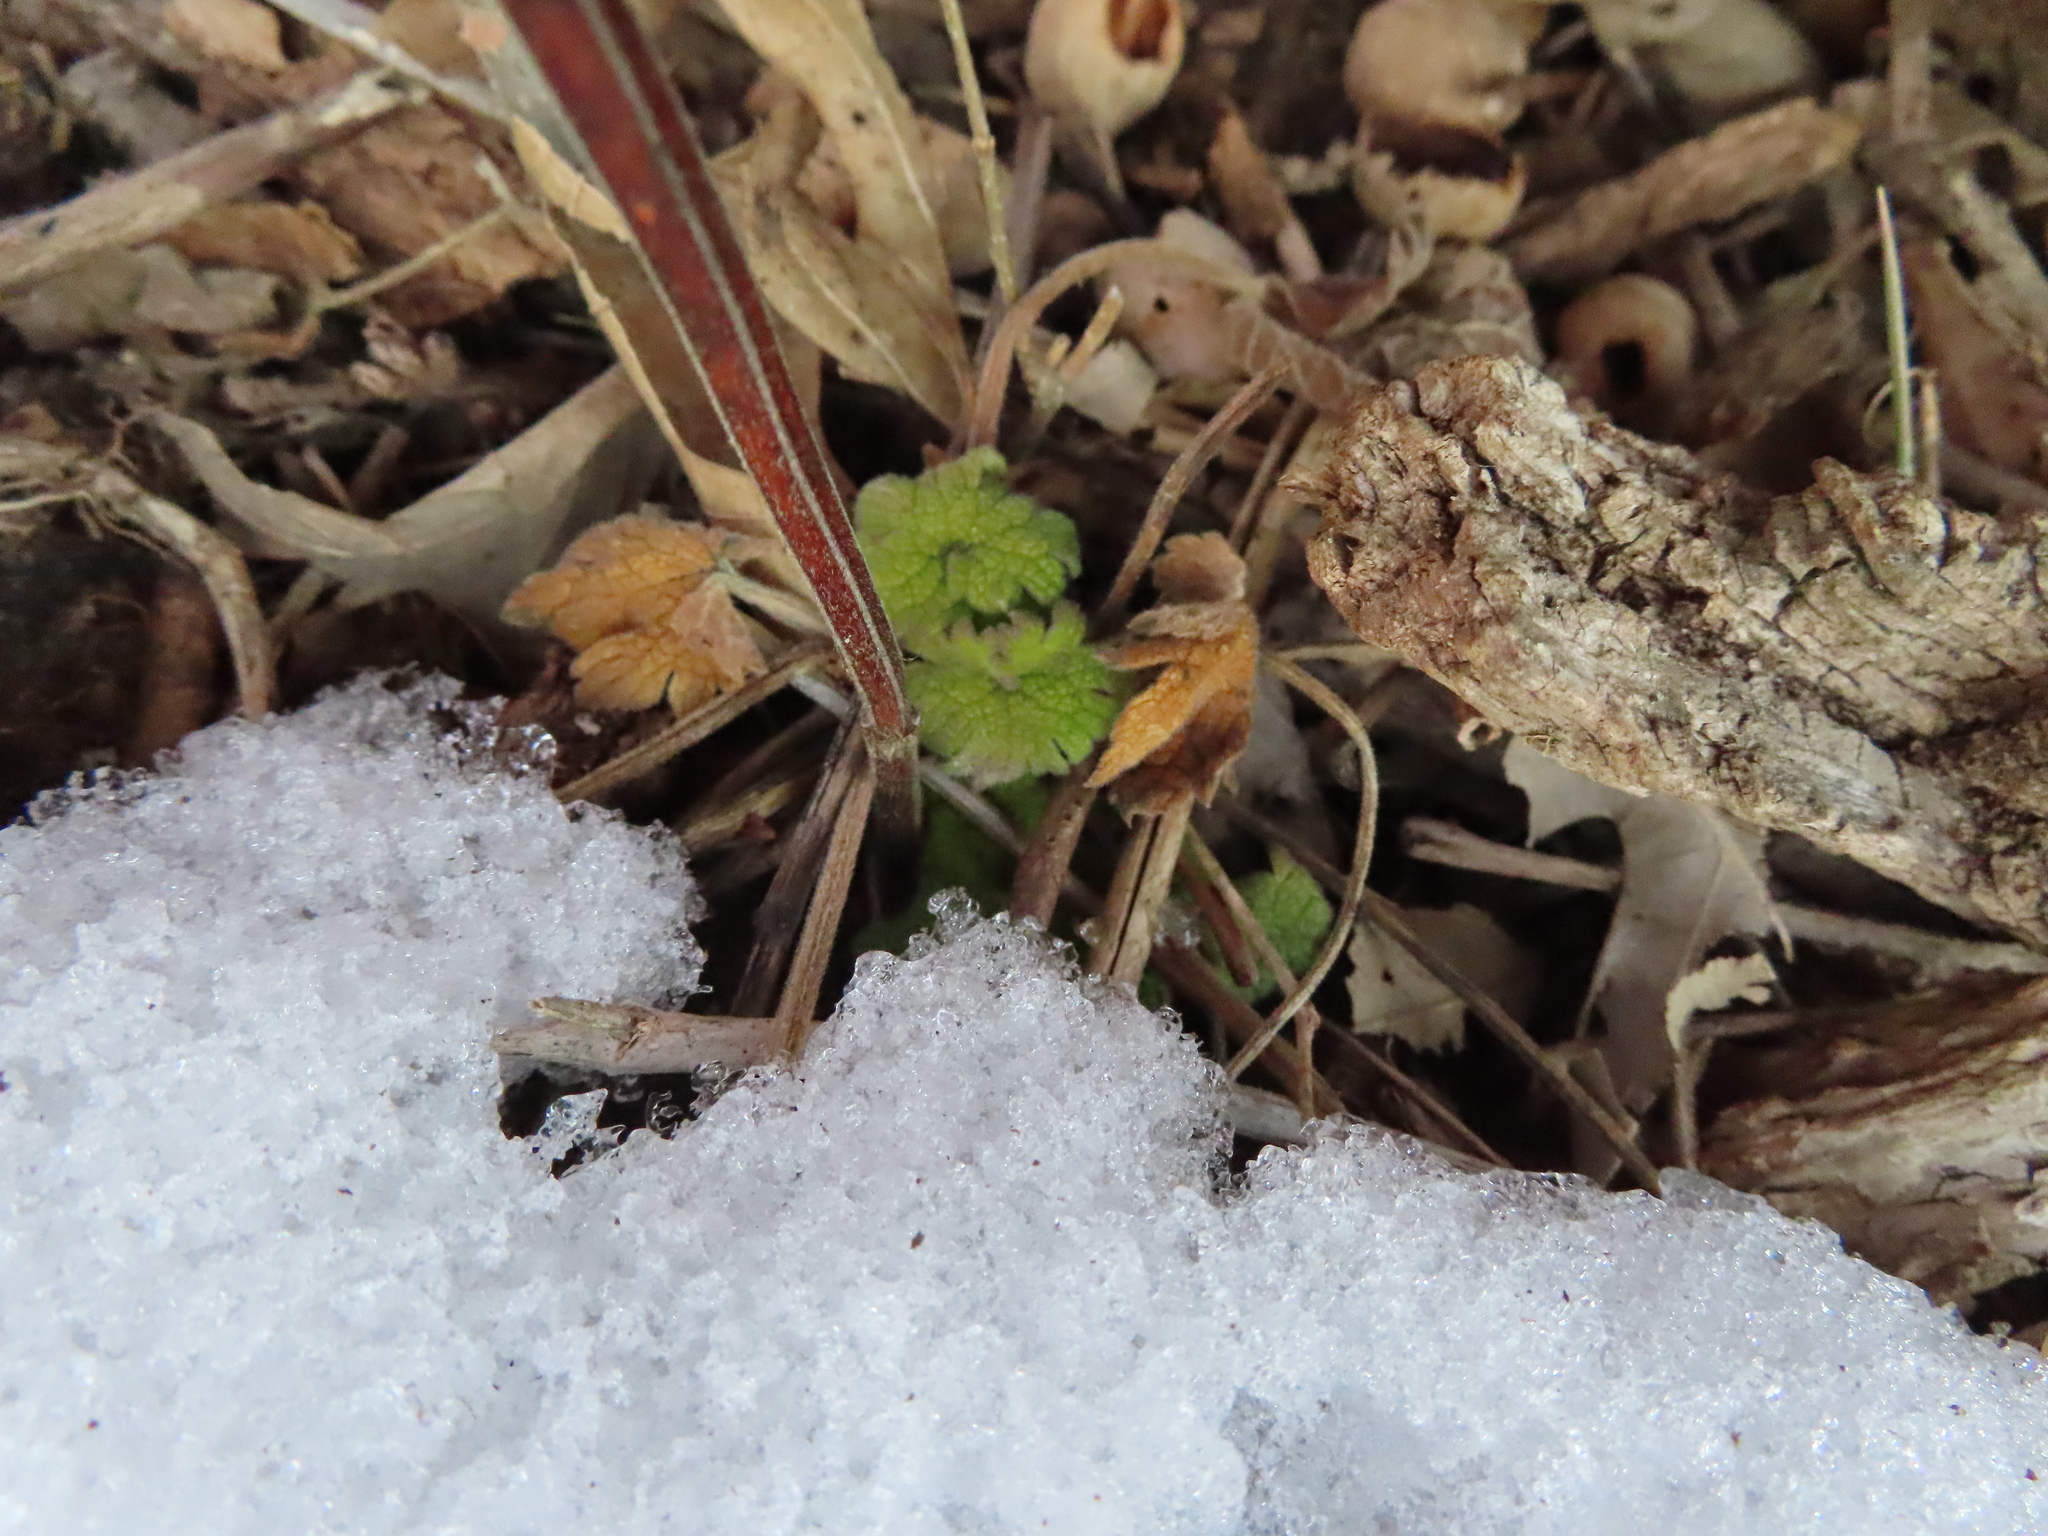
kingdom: Plantae
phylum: Tracheophyta
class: Magnoliopsida
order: Lamiales
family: Lamiaceae
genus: Leonurus
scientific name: Leonurus cardiaca
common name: Motherwort
